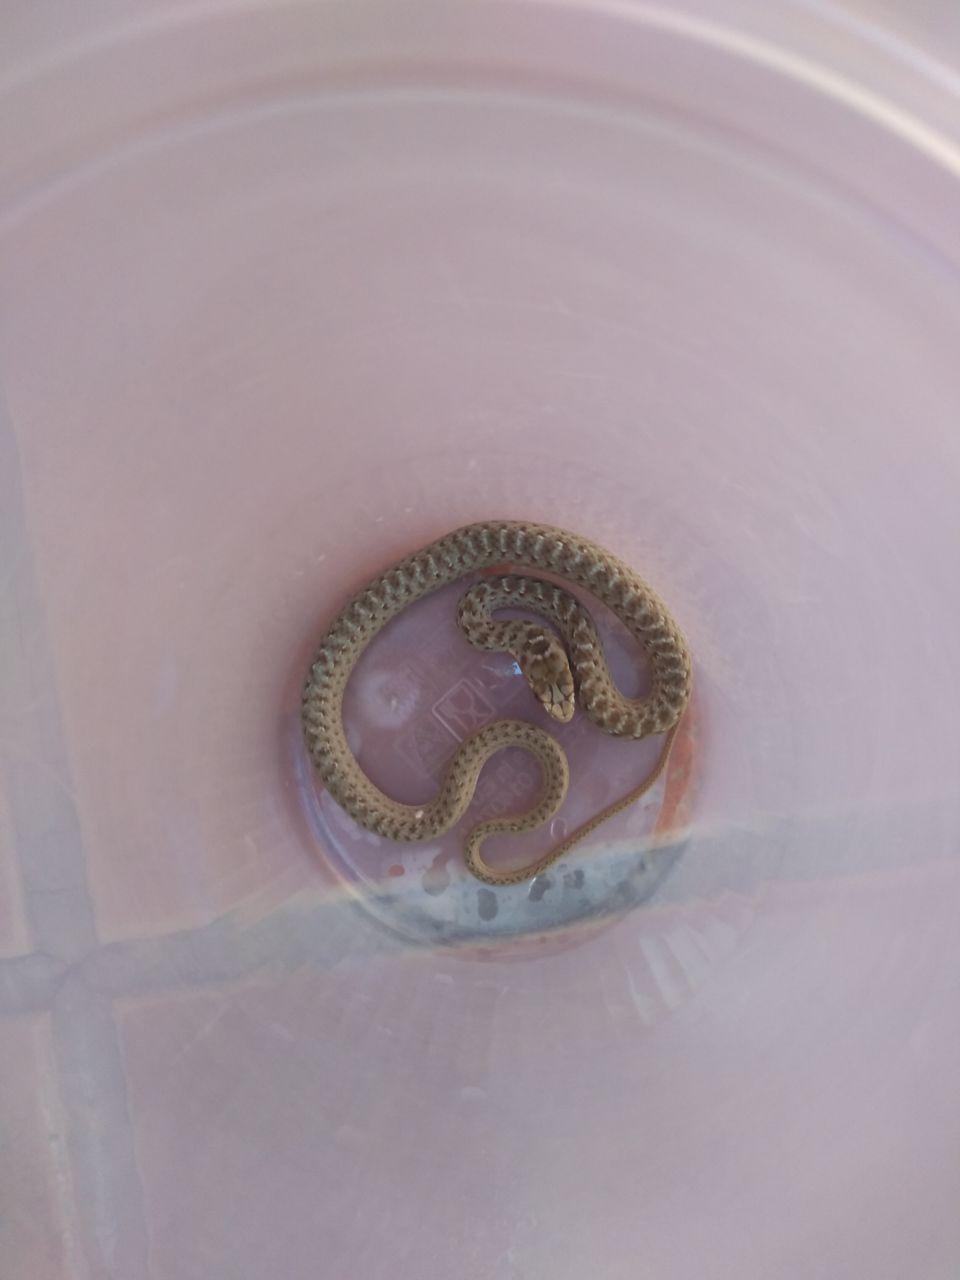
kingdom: Animalia
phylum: Chordata
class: Squamata
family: Psammophiidae
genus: Malpolon
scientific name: Malpolon monspessulanus
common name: Montpellier snake
